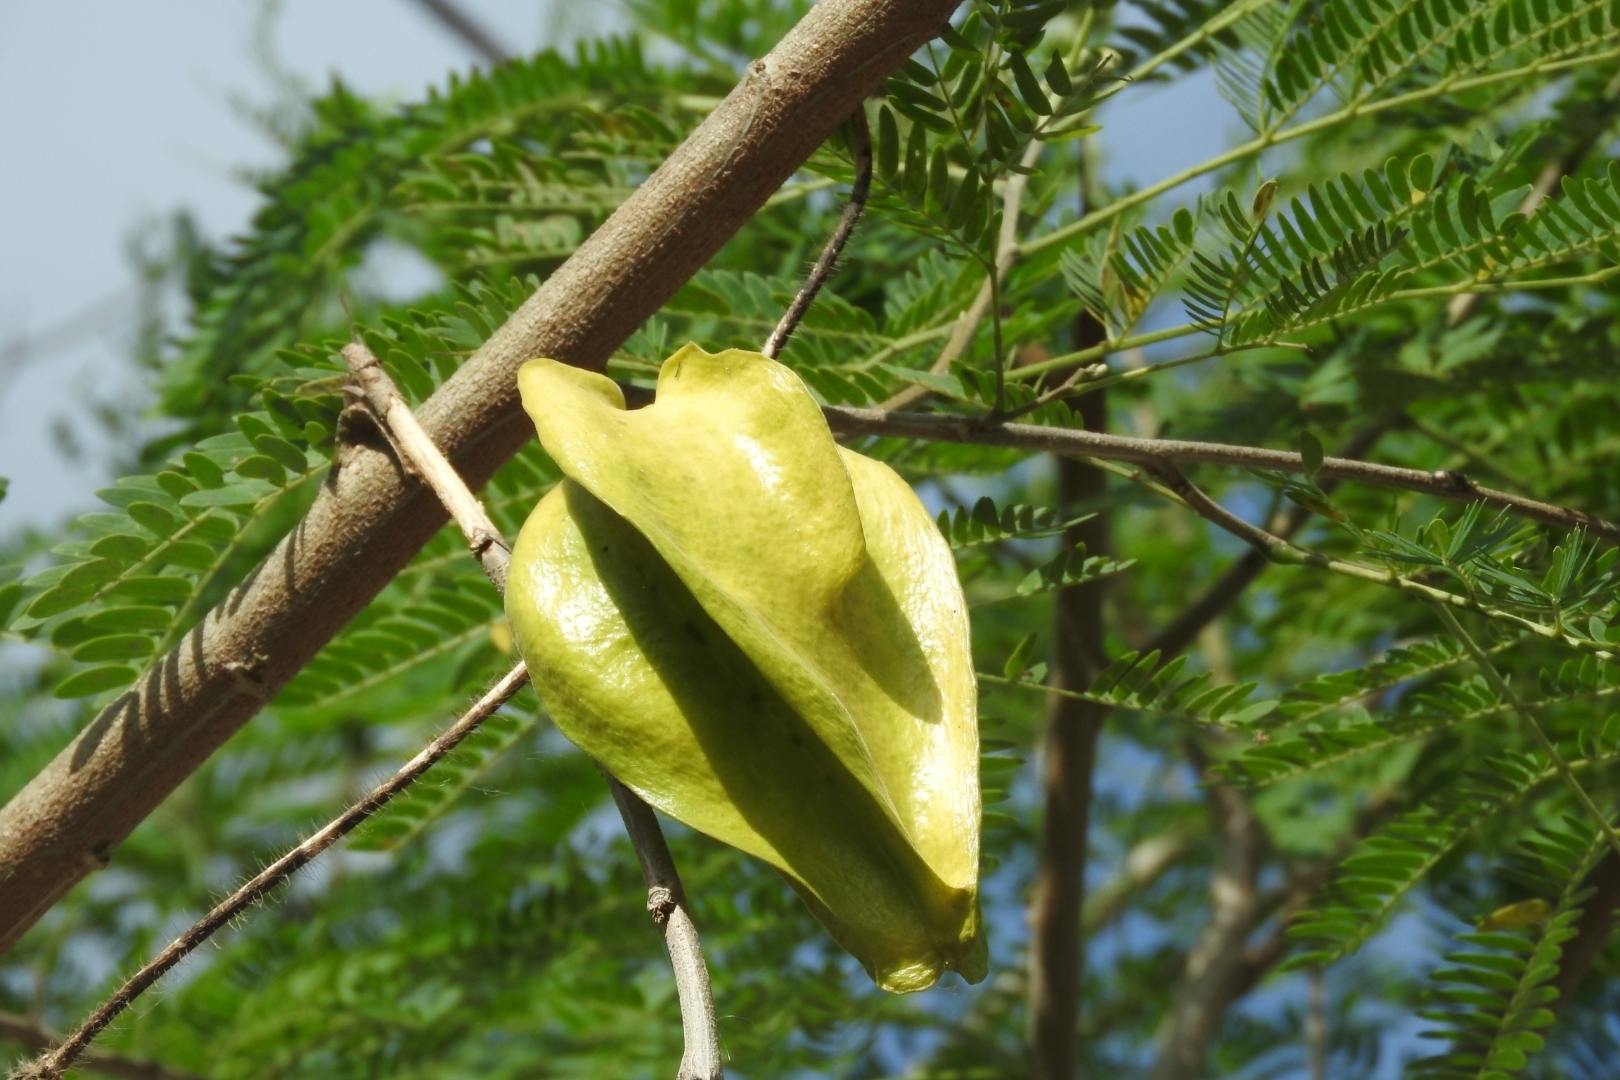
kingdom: Plantae
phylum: Tracheophyta
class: Magnoliopsida
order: Gentianales
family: Apocynaceae
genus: Macroscepis
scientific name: Macroscepis yucatanensis
